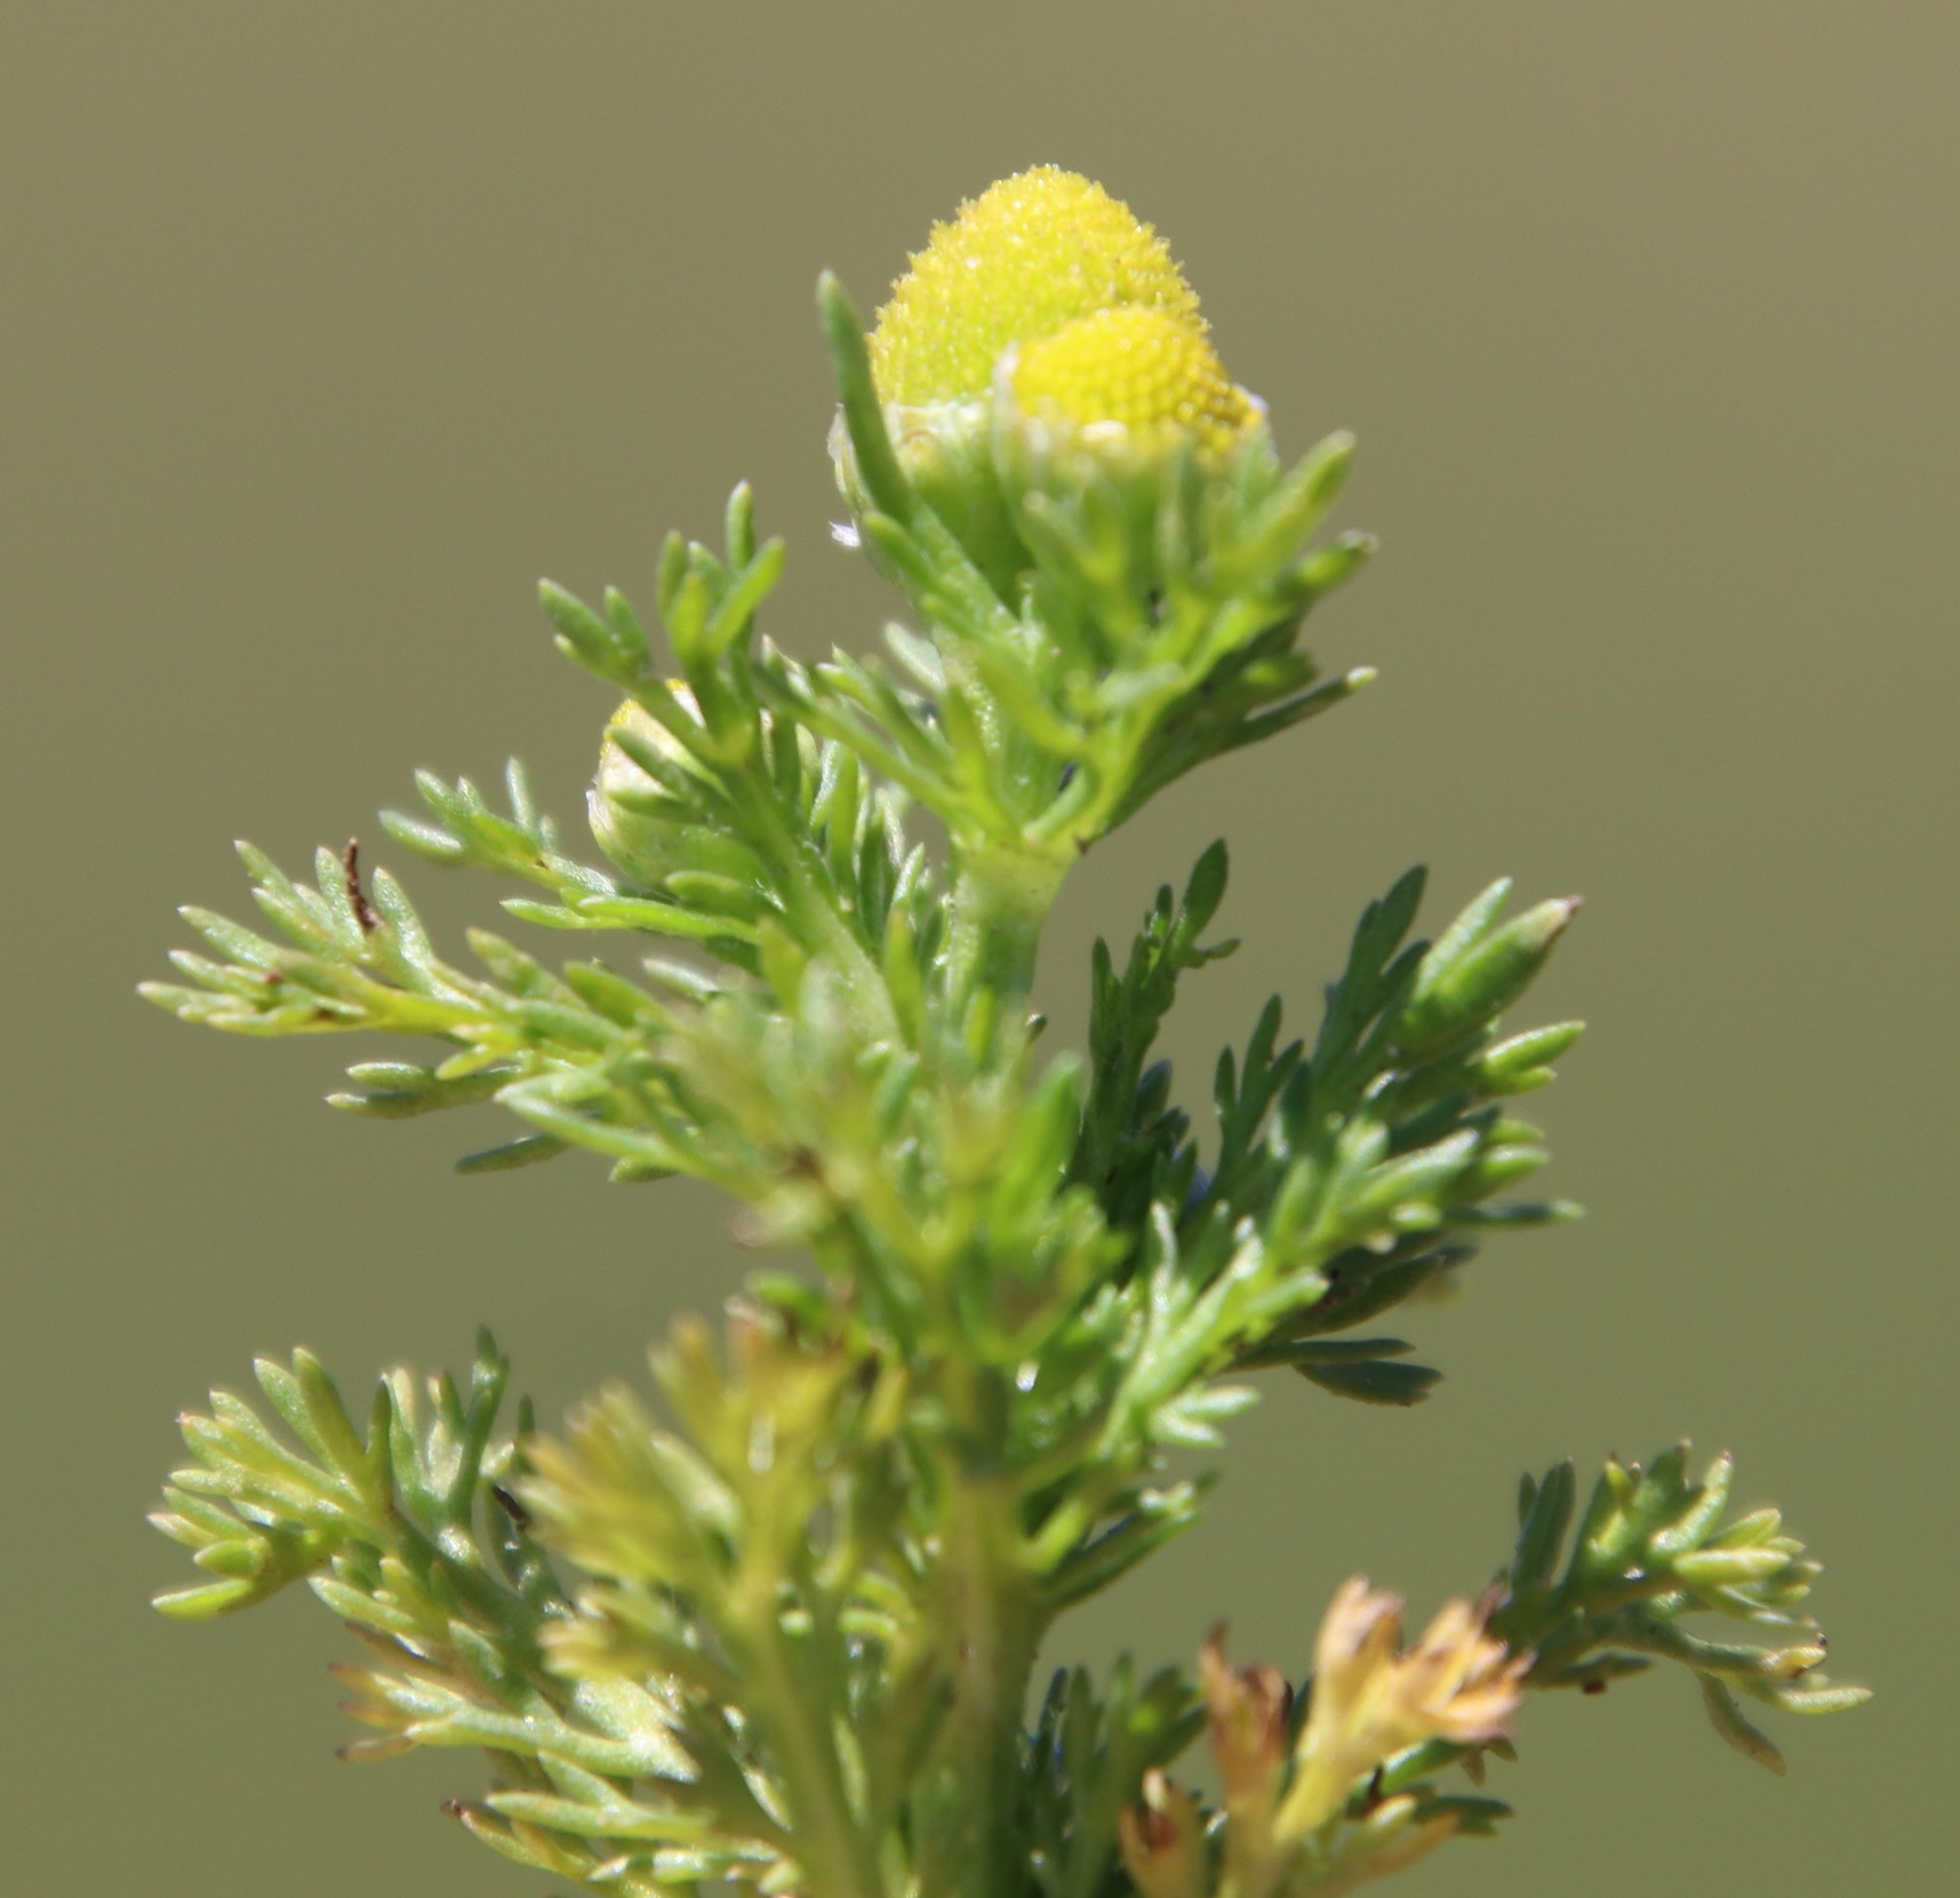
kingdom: Plantae
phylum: Tracheophyta
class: Magnoliopsida
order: Asterales
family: Asteraceae
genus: Matricaria
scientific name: Matricaria discoidea
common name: Disc mayweed
